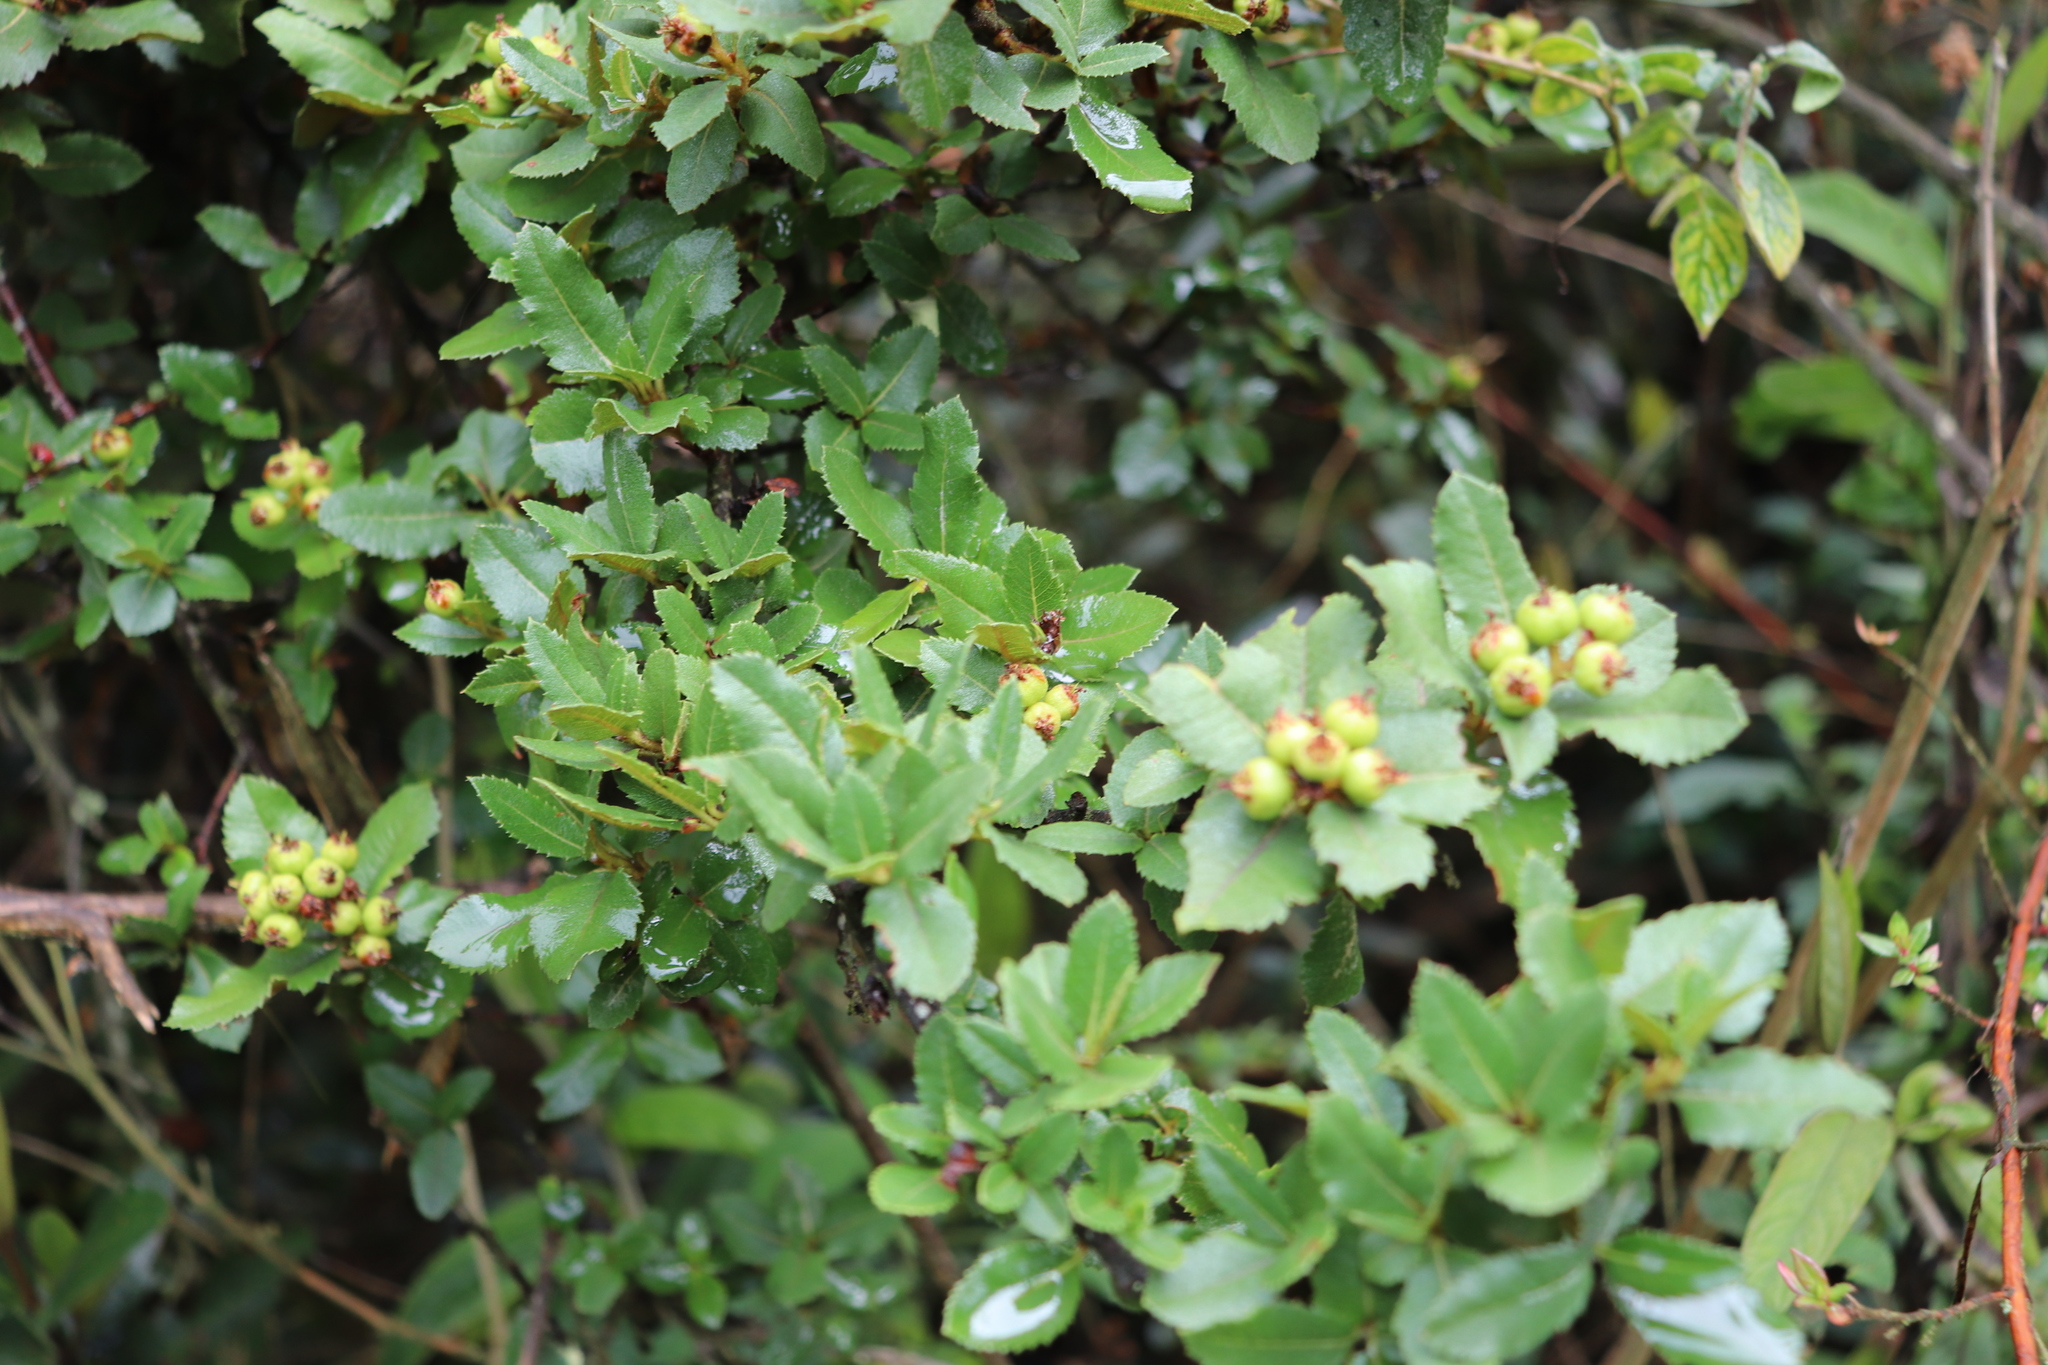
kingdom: Plantae
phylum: Tracheophyta
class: Magnoliopsida
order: Rosales
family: Rosaceae
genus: Hesperomeles
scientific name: Hesperomeles obtusifolia
